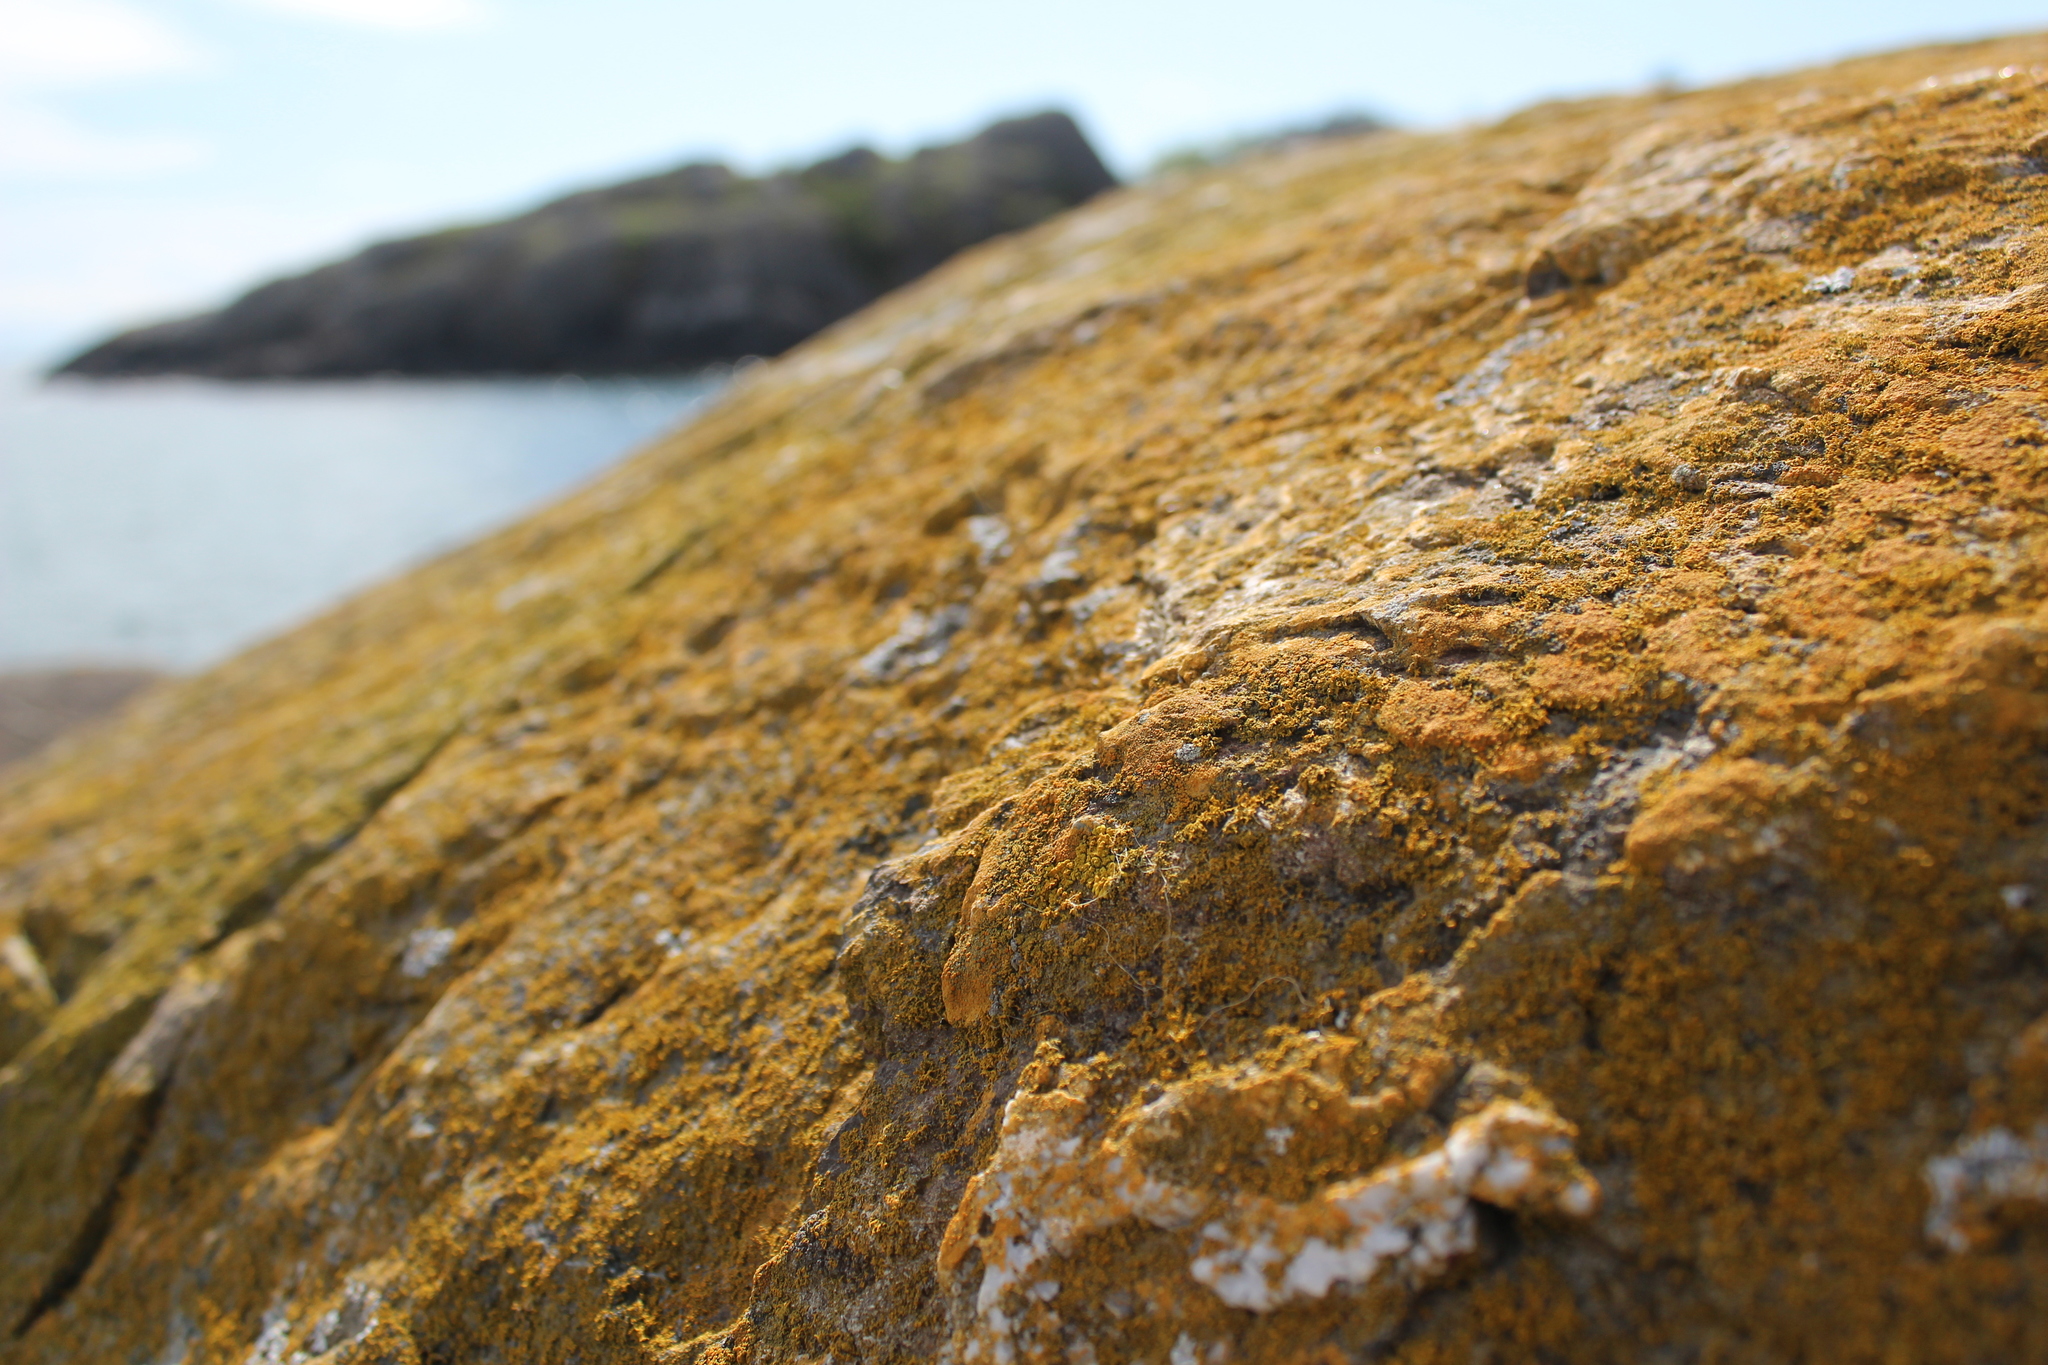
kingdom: Fungi
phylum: Ascomycota
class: Lecanoromycetes
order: Teloschistales
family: Teloschistaceae
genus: Xanthoria
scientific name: Xanthoria parietina
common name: Common orange lichen
